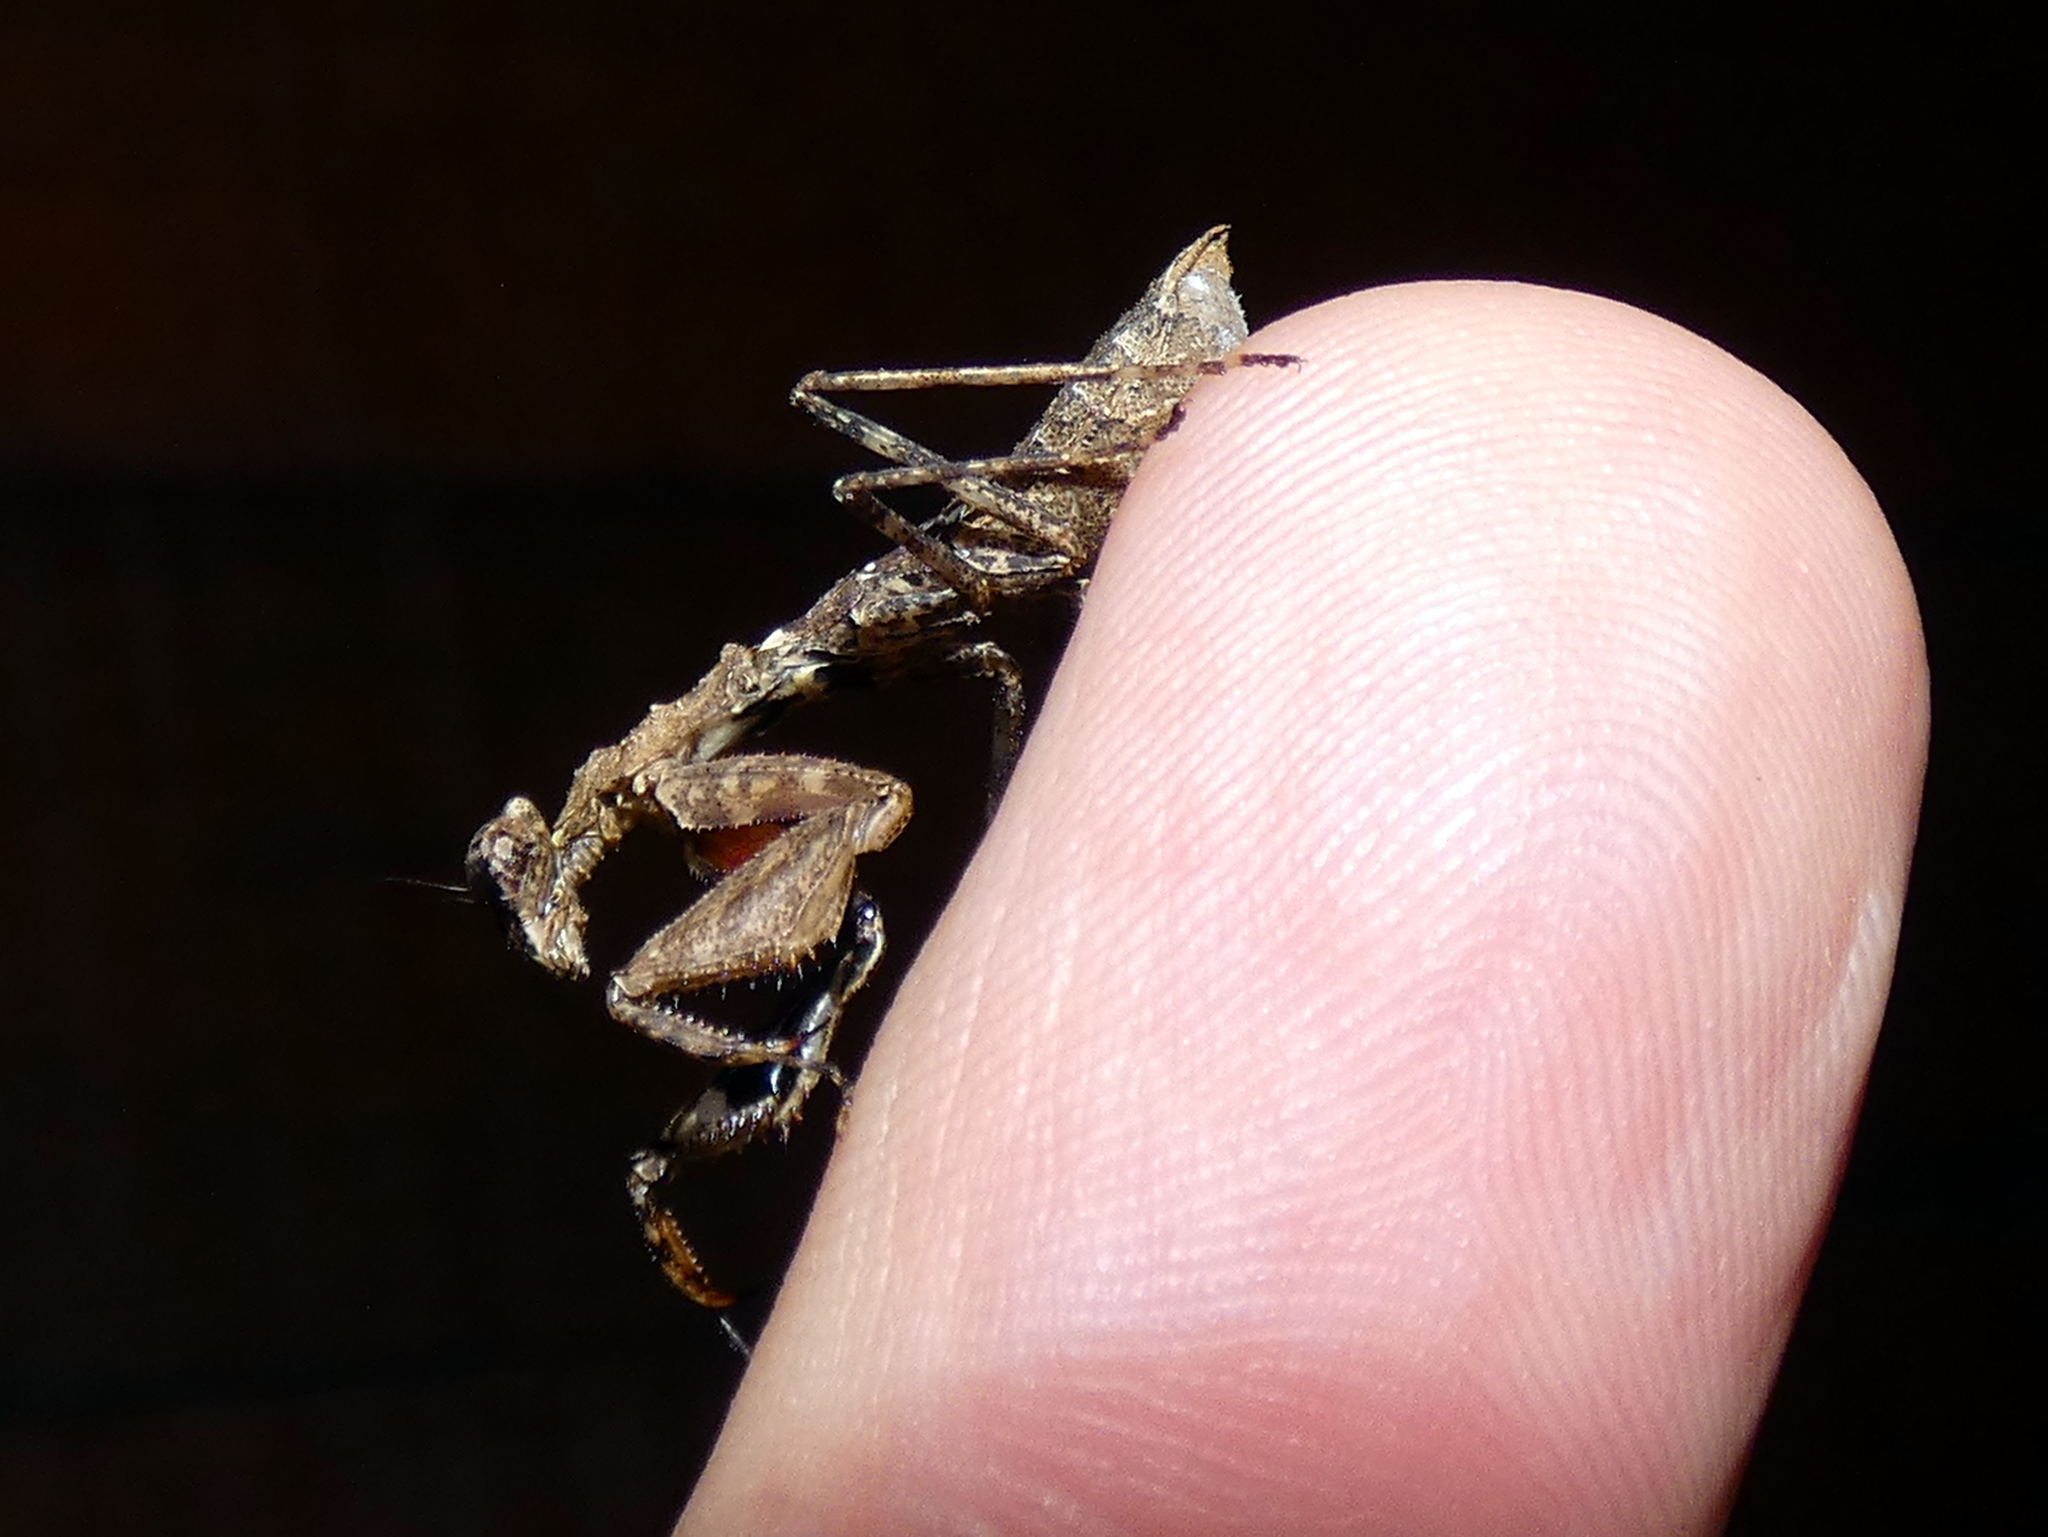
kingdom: Animalia
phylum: Arthropoda
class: Insecta
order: Mantodea
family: Thespidae
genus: Pseudomiopteryx
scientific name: Pseudomiopteryx infuscata
